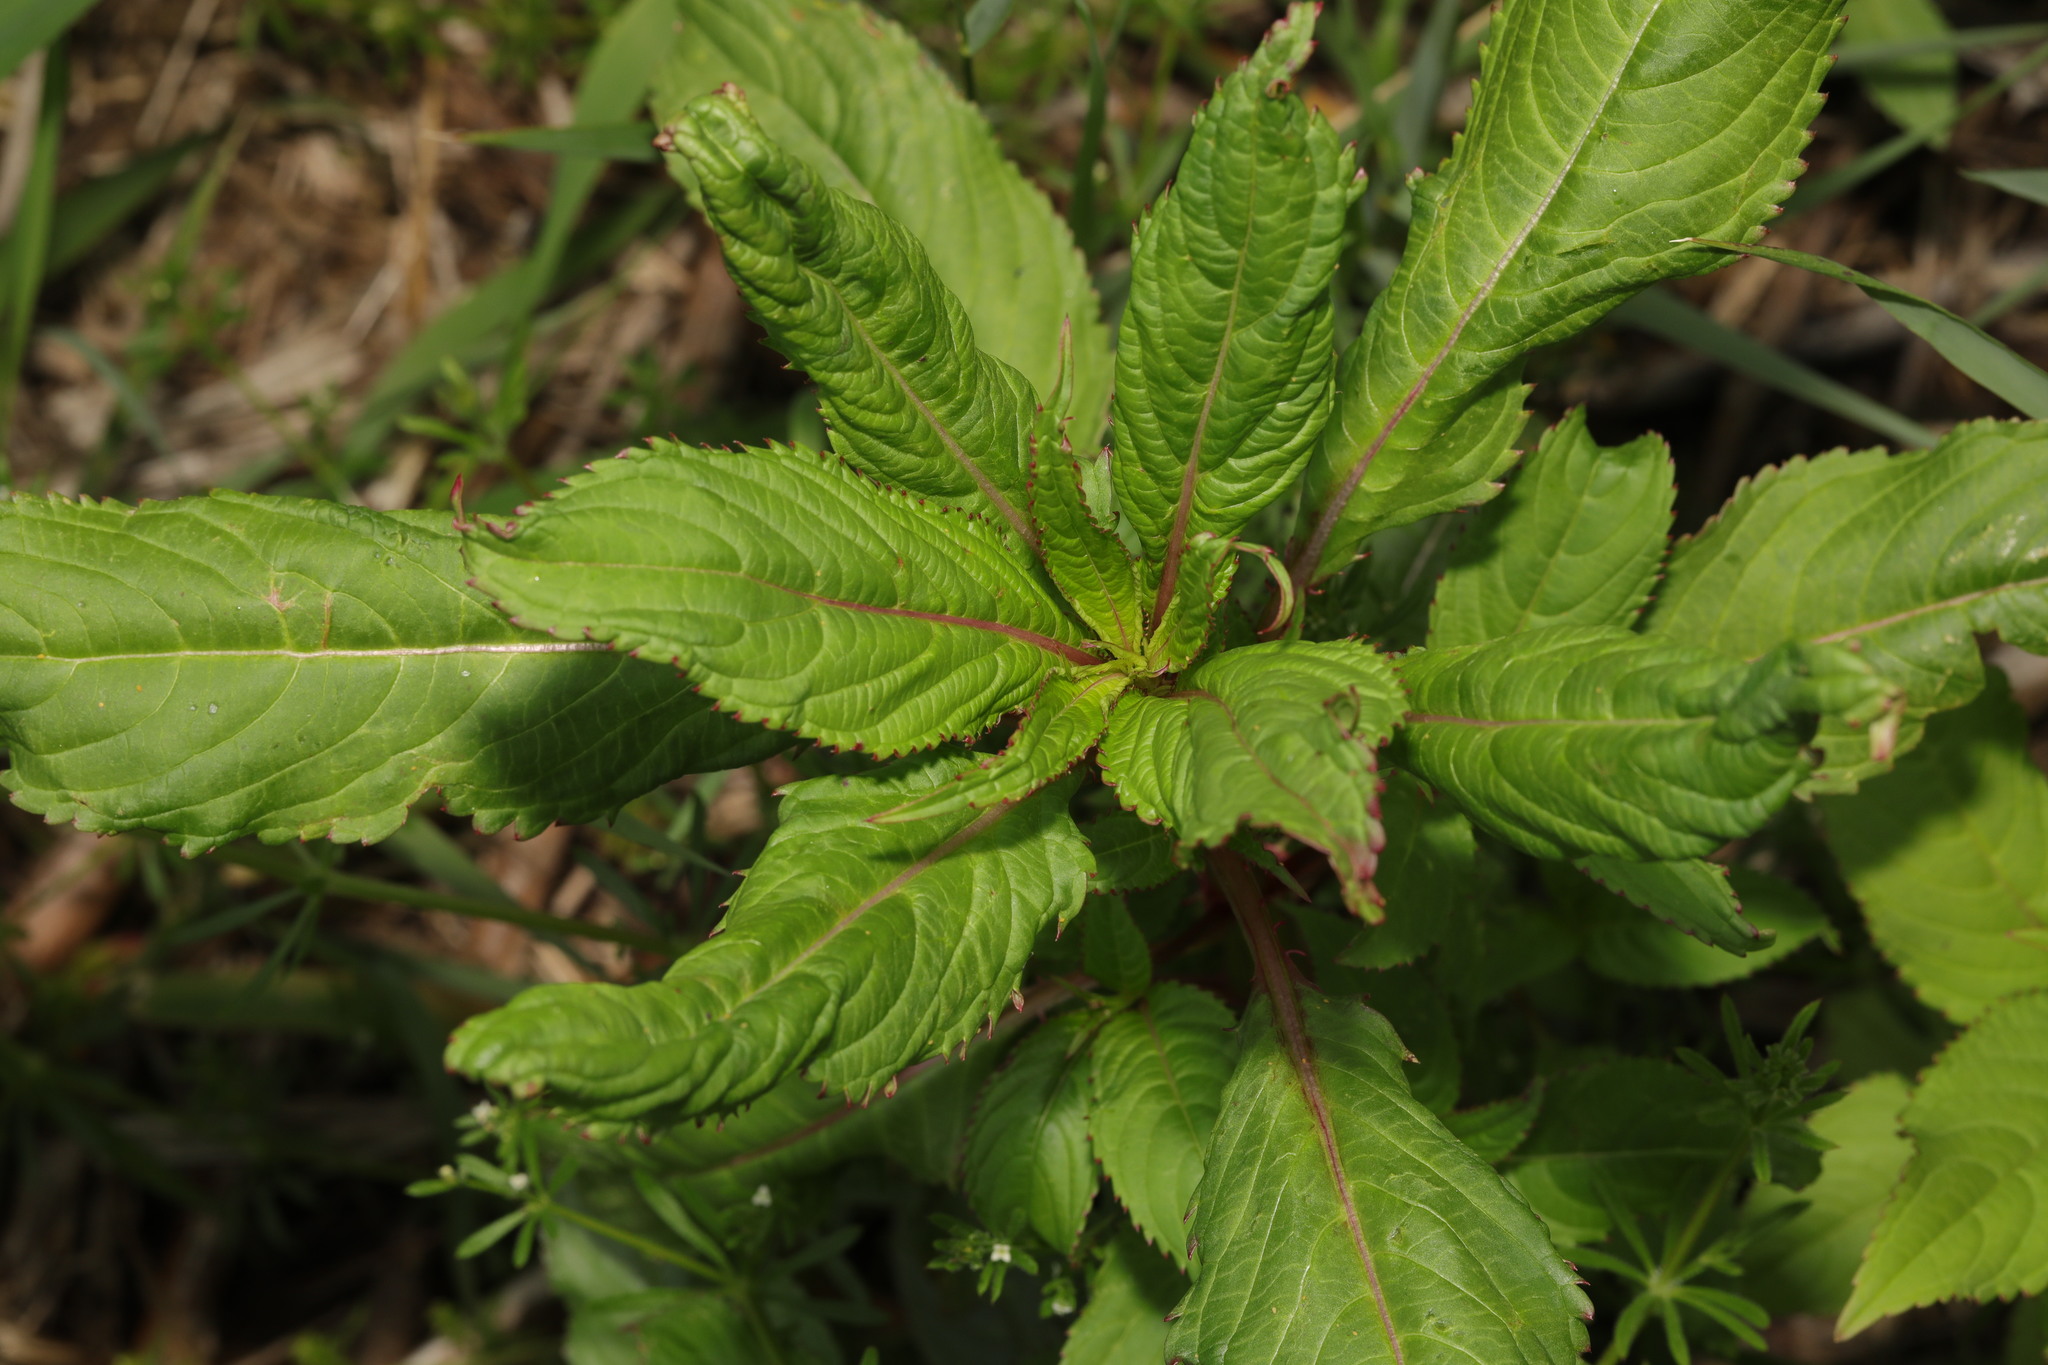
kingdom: Plantae
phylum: Tracheophyta
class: Magnoliopsida
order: Ericales
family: Balsaminaceae
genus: Impatiens
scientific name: Impatiens glandulifera
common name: Himalayan balsam
